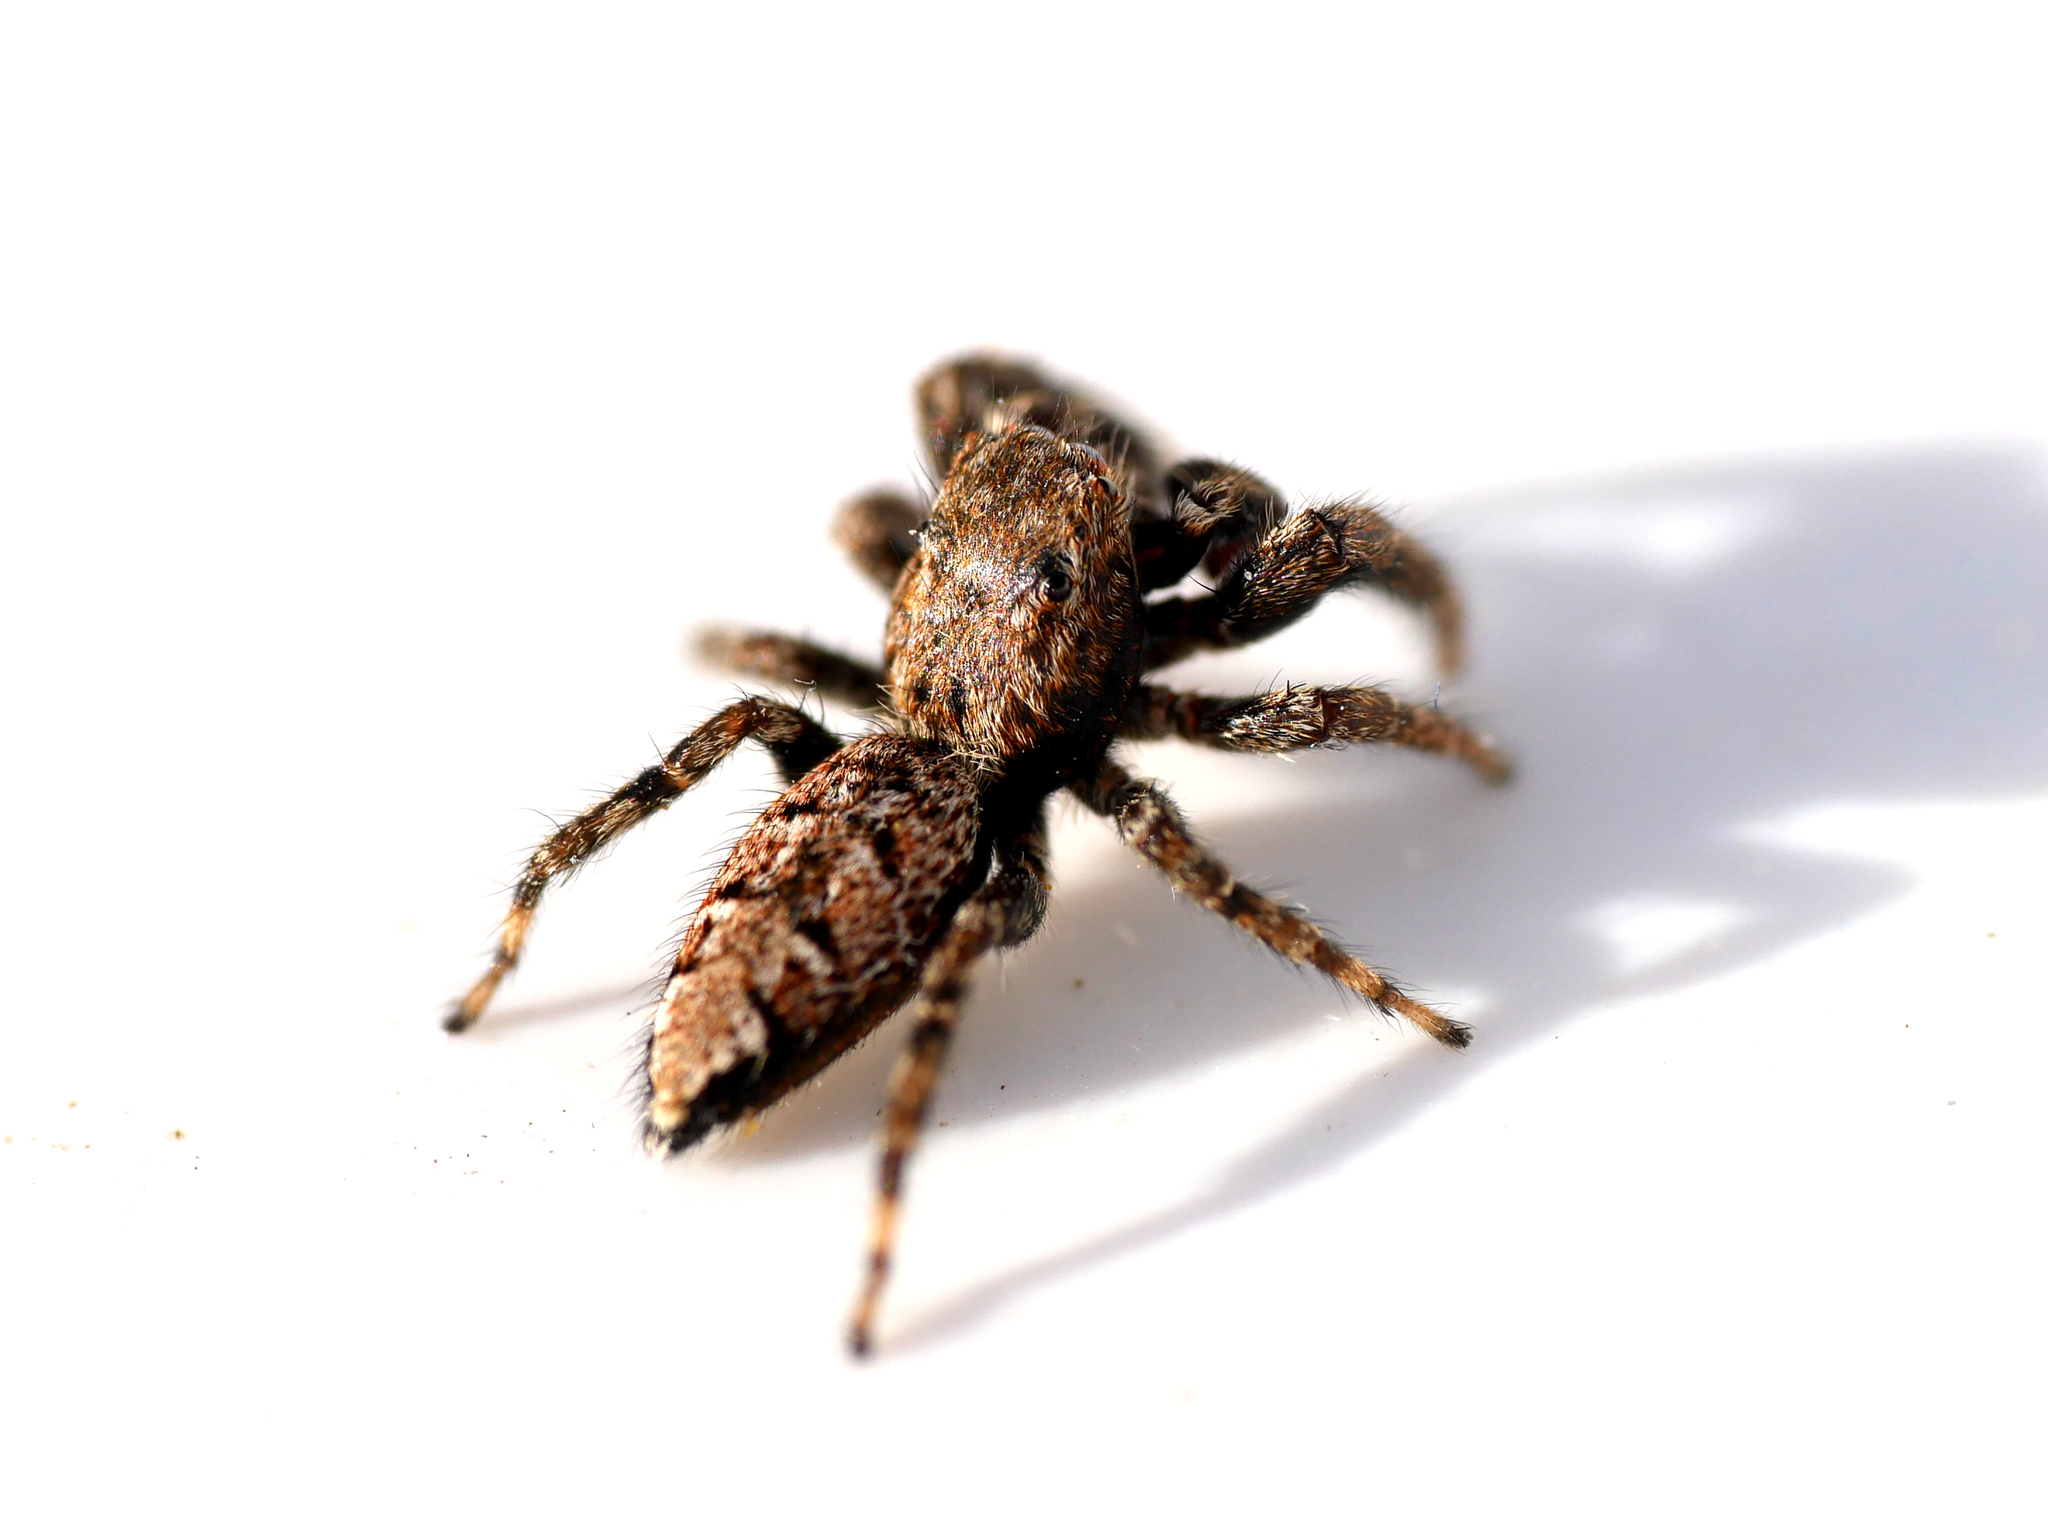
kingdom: Animalia
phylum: Arthropoda
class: Arachnida
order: Araneae
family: Salticidae
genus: Marpissa
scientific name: Marpissa muscosa
